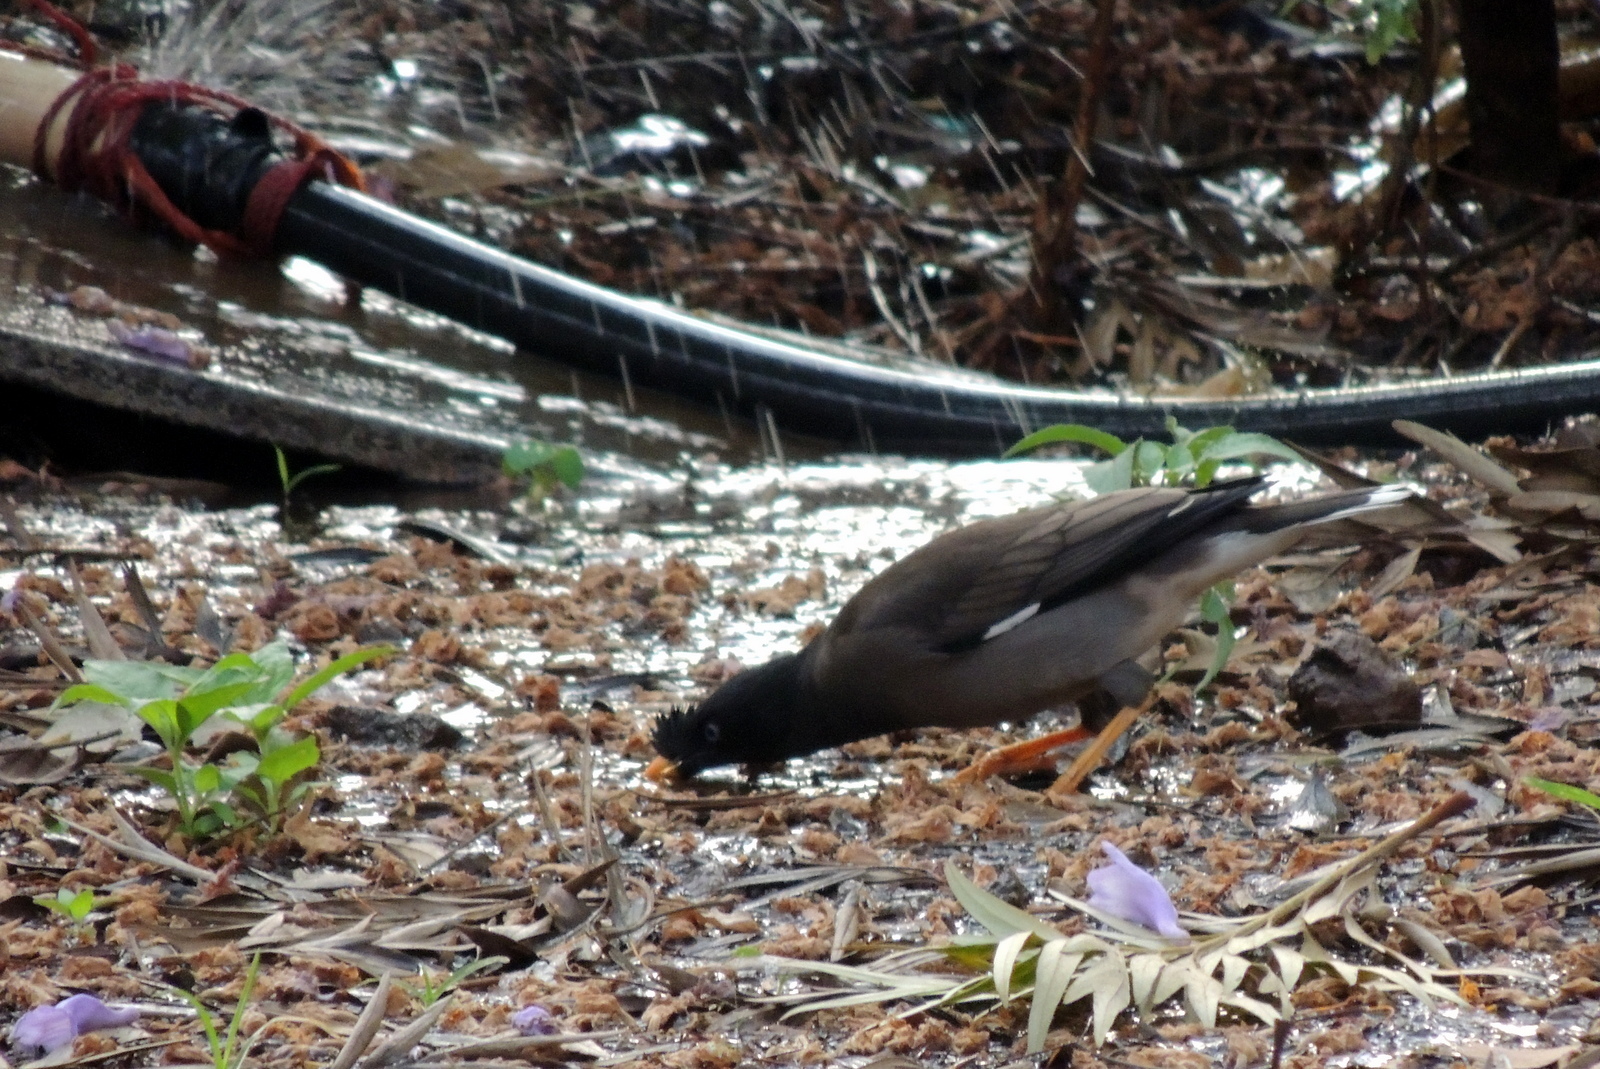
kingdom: Animalia
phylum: Chordata
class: Aves
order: Passeriformes
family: Sturnidae
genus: Acridotheres
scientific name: Acridotheres fuscus
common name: Jungle myna
